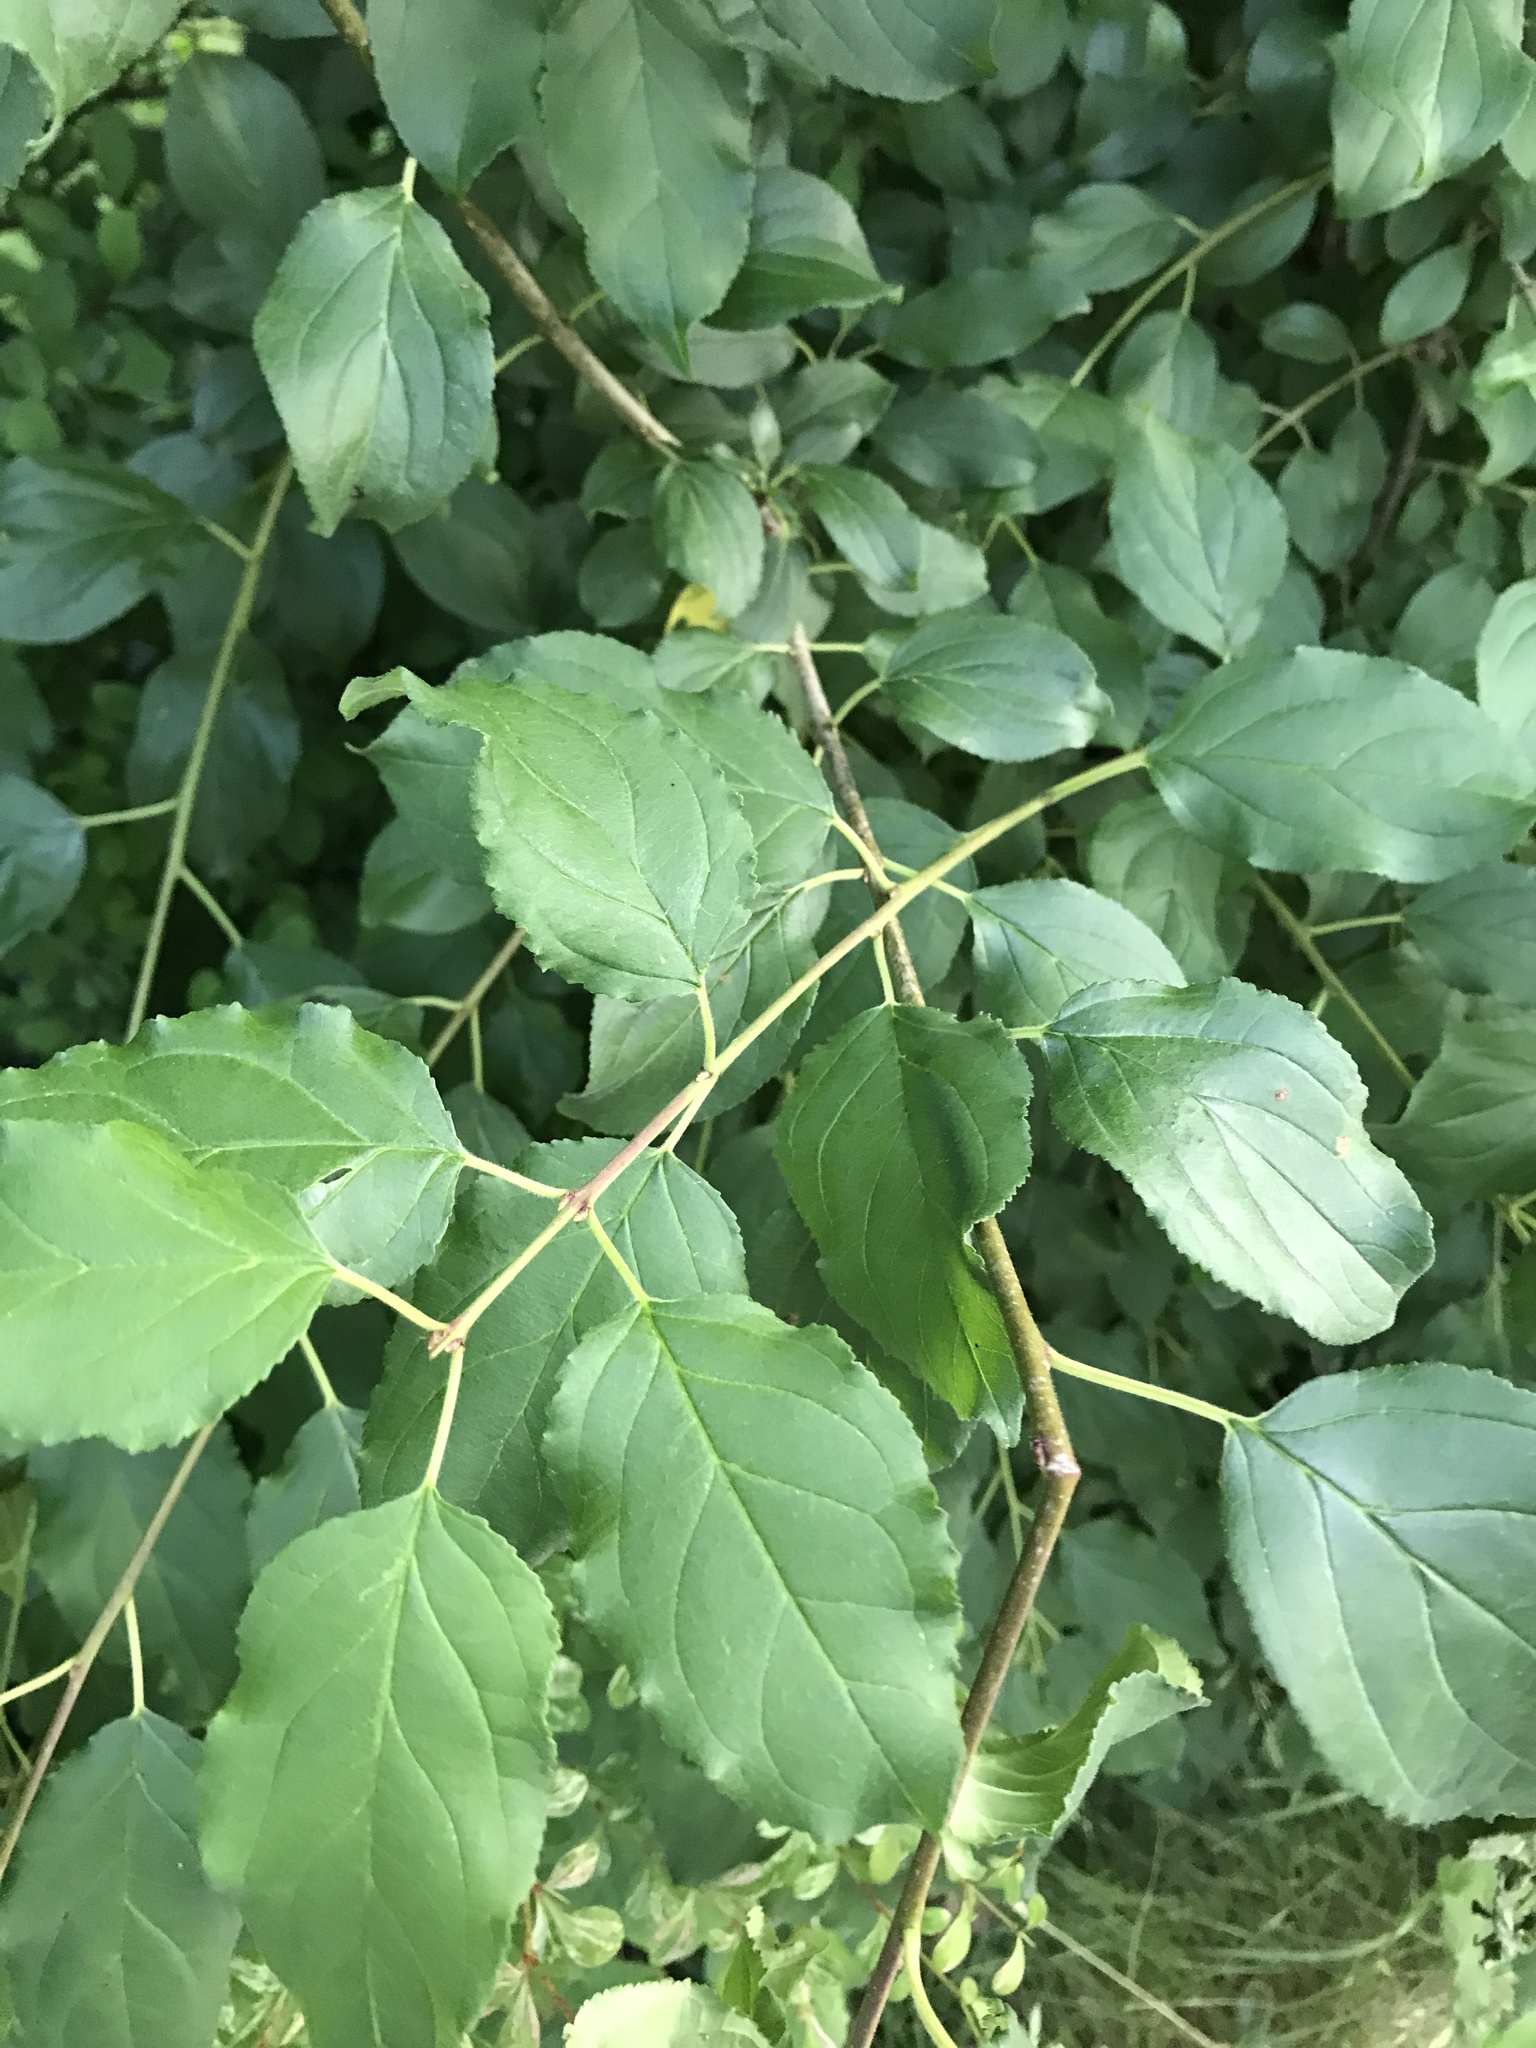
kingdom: Plantae
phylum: Tracheophyta
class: Magnoliopsida
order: Rosales
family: Rhamnaceae
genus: Rhamnus
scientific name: Rhamnus cathartica
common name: Common buckthorn
